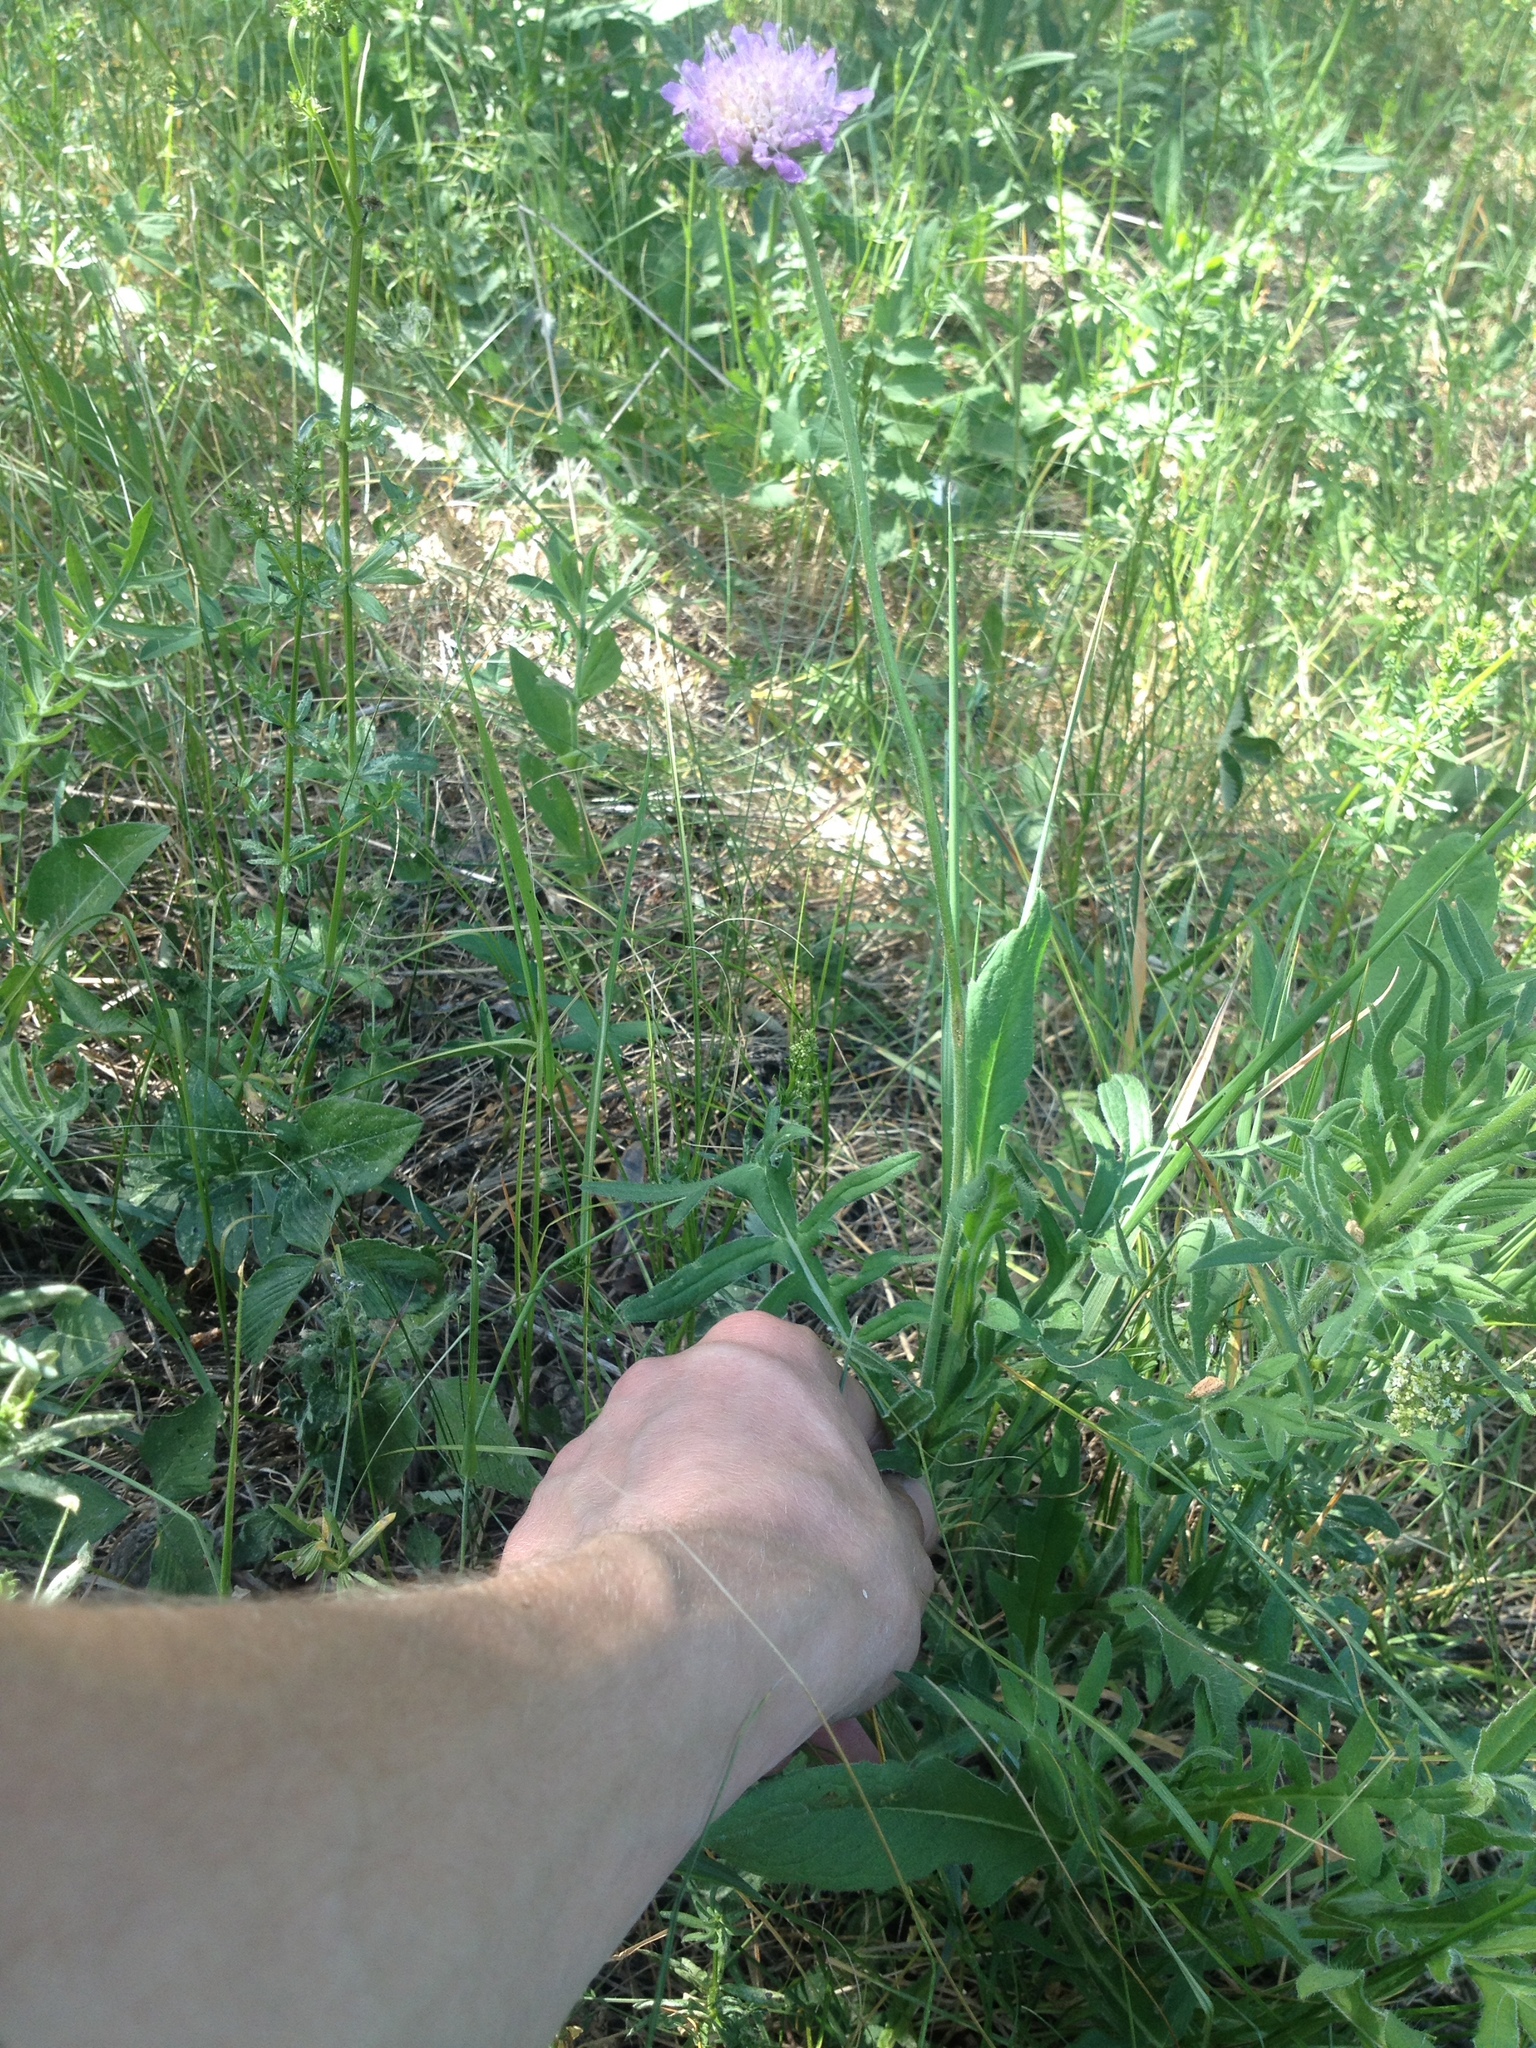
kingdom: Plantae
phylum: Tracheophyta
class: Magnoliopsida
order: Dipsacales
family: Caprifoliaceae
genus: Knautia
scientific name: Knautia arvensis
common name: Field scabiosa
